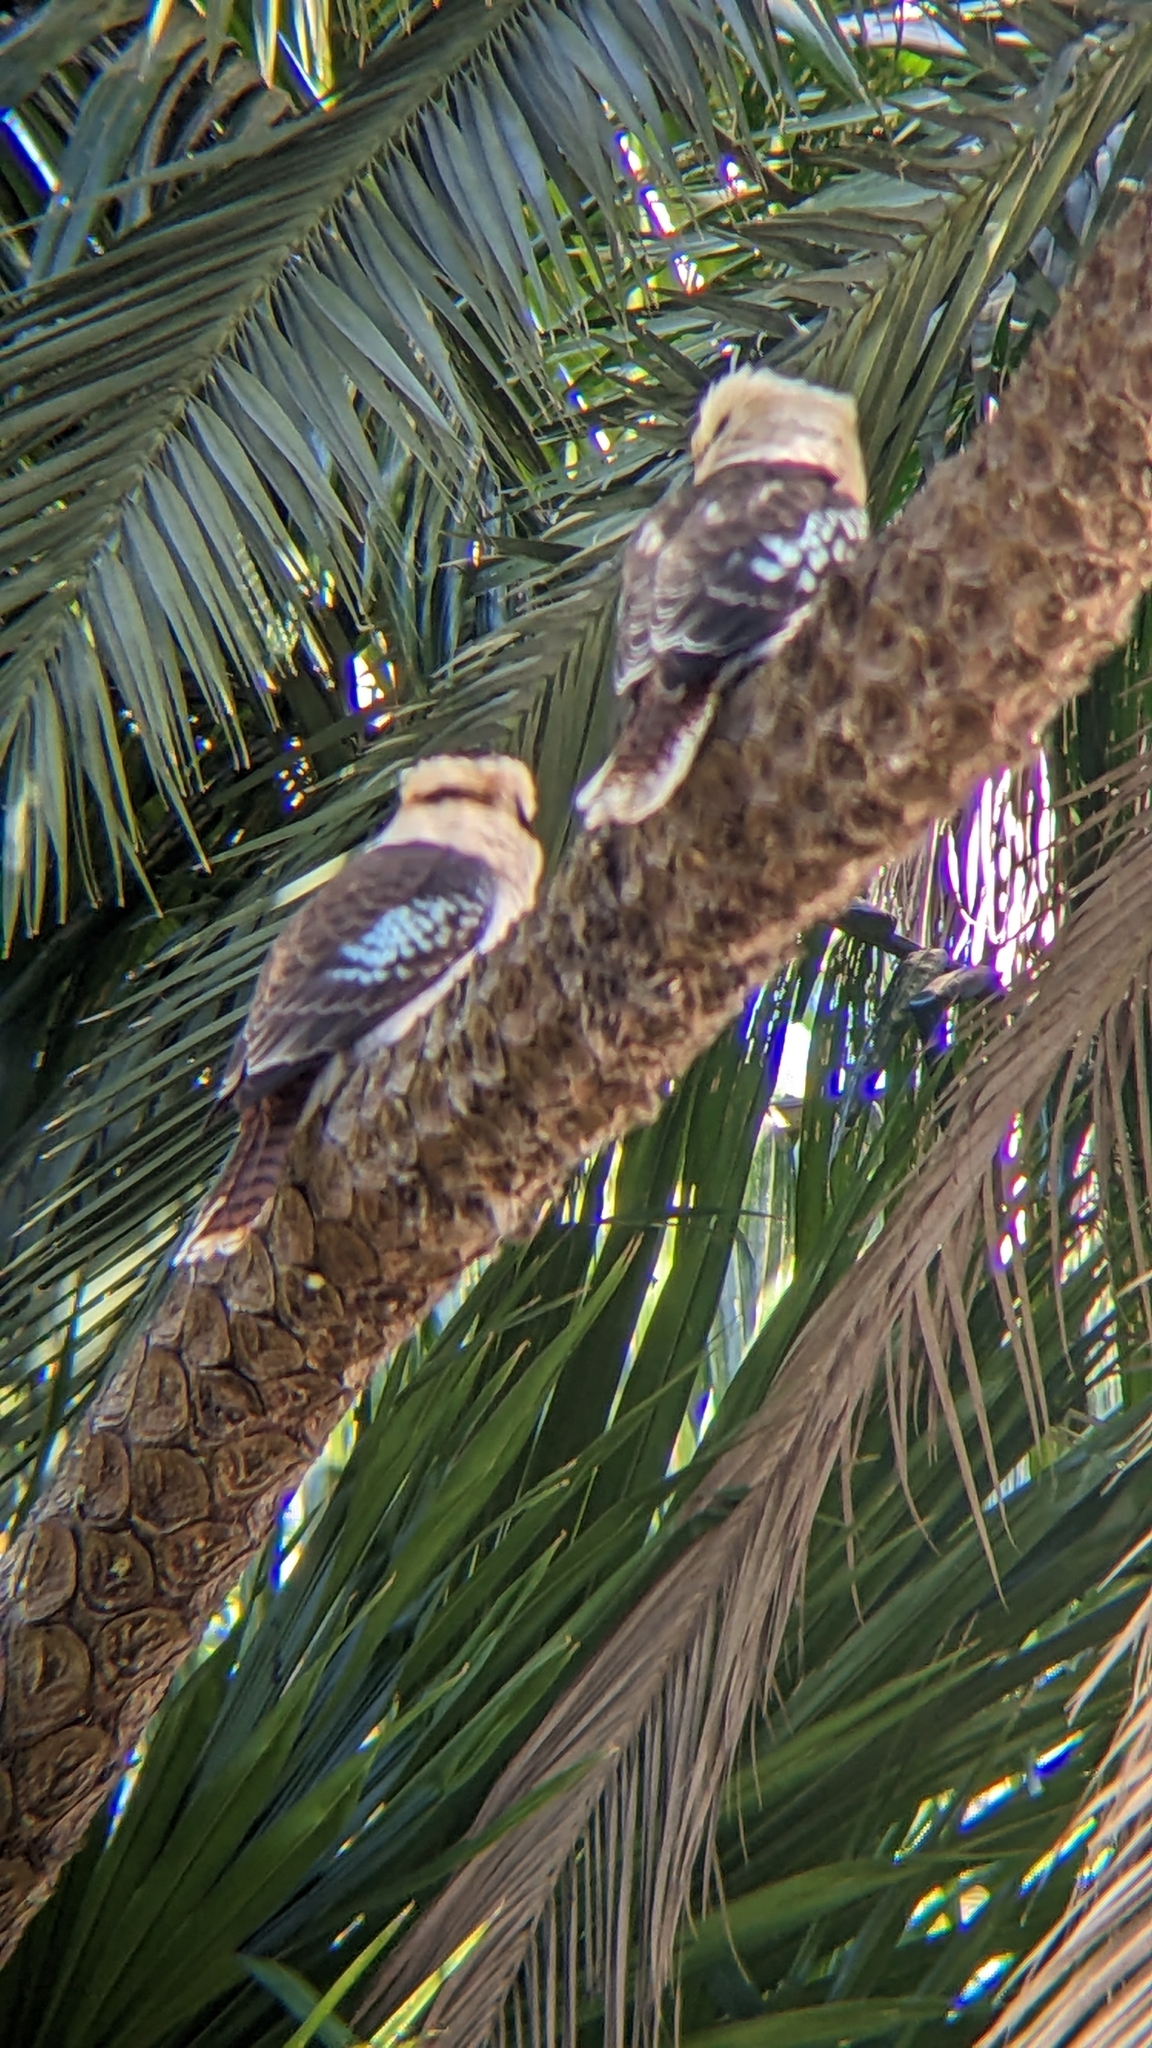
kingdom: Animalia
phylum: Chordata
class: Aves
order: Coraciiformes
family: Alcedinidae
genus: Dacelo
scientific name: Dacelo novaeguineae
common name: Laughing kookaburra
